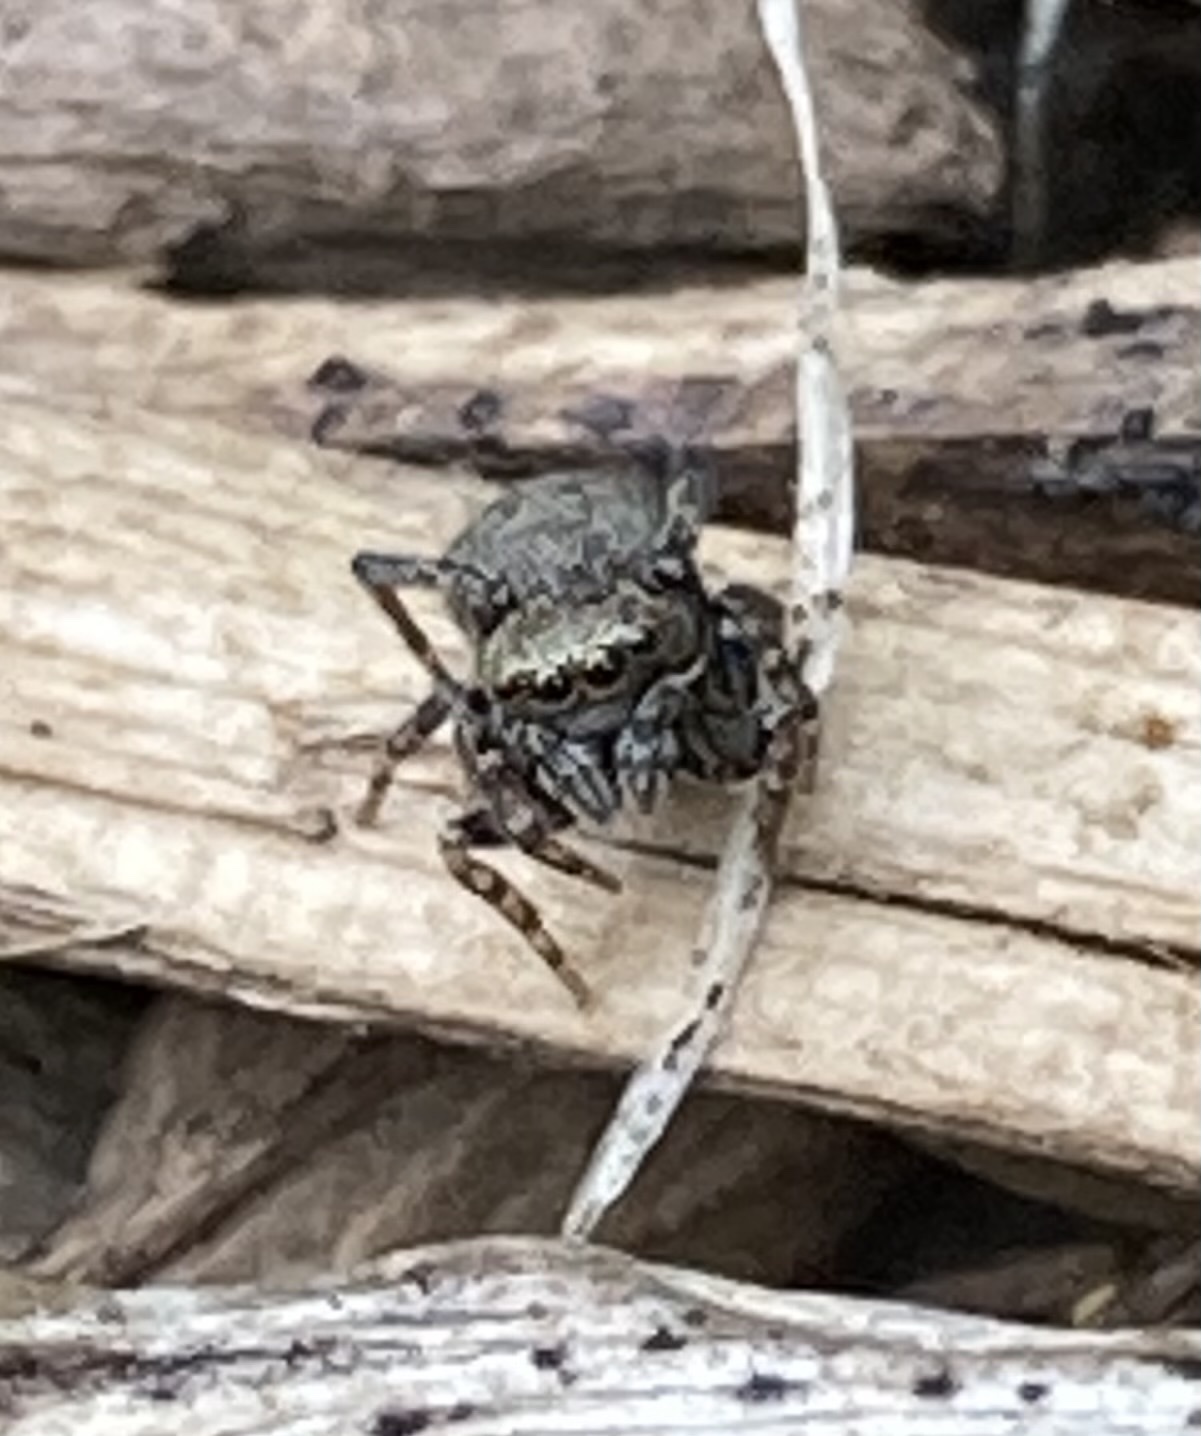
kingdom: Animalia
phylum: Arthropoda
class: Arachnida
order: Araneae
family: Salticidae
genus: Attinella
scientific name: Attinella concolor
